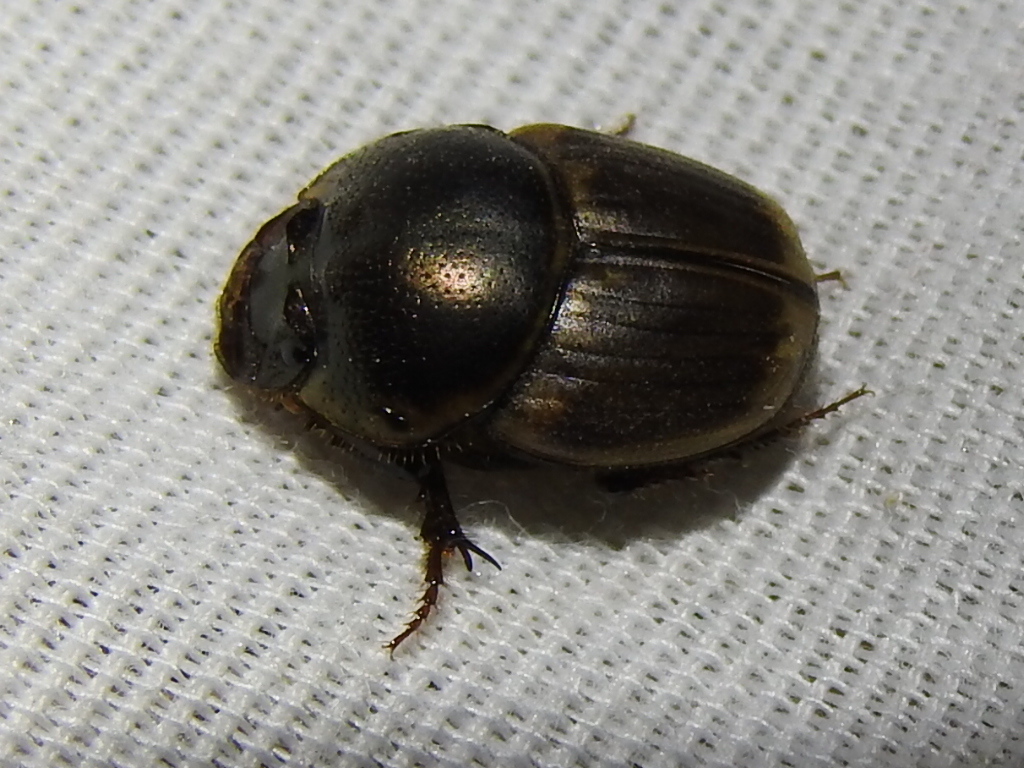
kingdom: Animalia
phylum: Arthropoda
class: Insecta
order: Coleoptera
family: Scarabaeidae
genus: Digitonthophagus
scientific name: Digitonthophagus gazella
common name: Brown dung beetle
